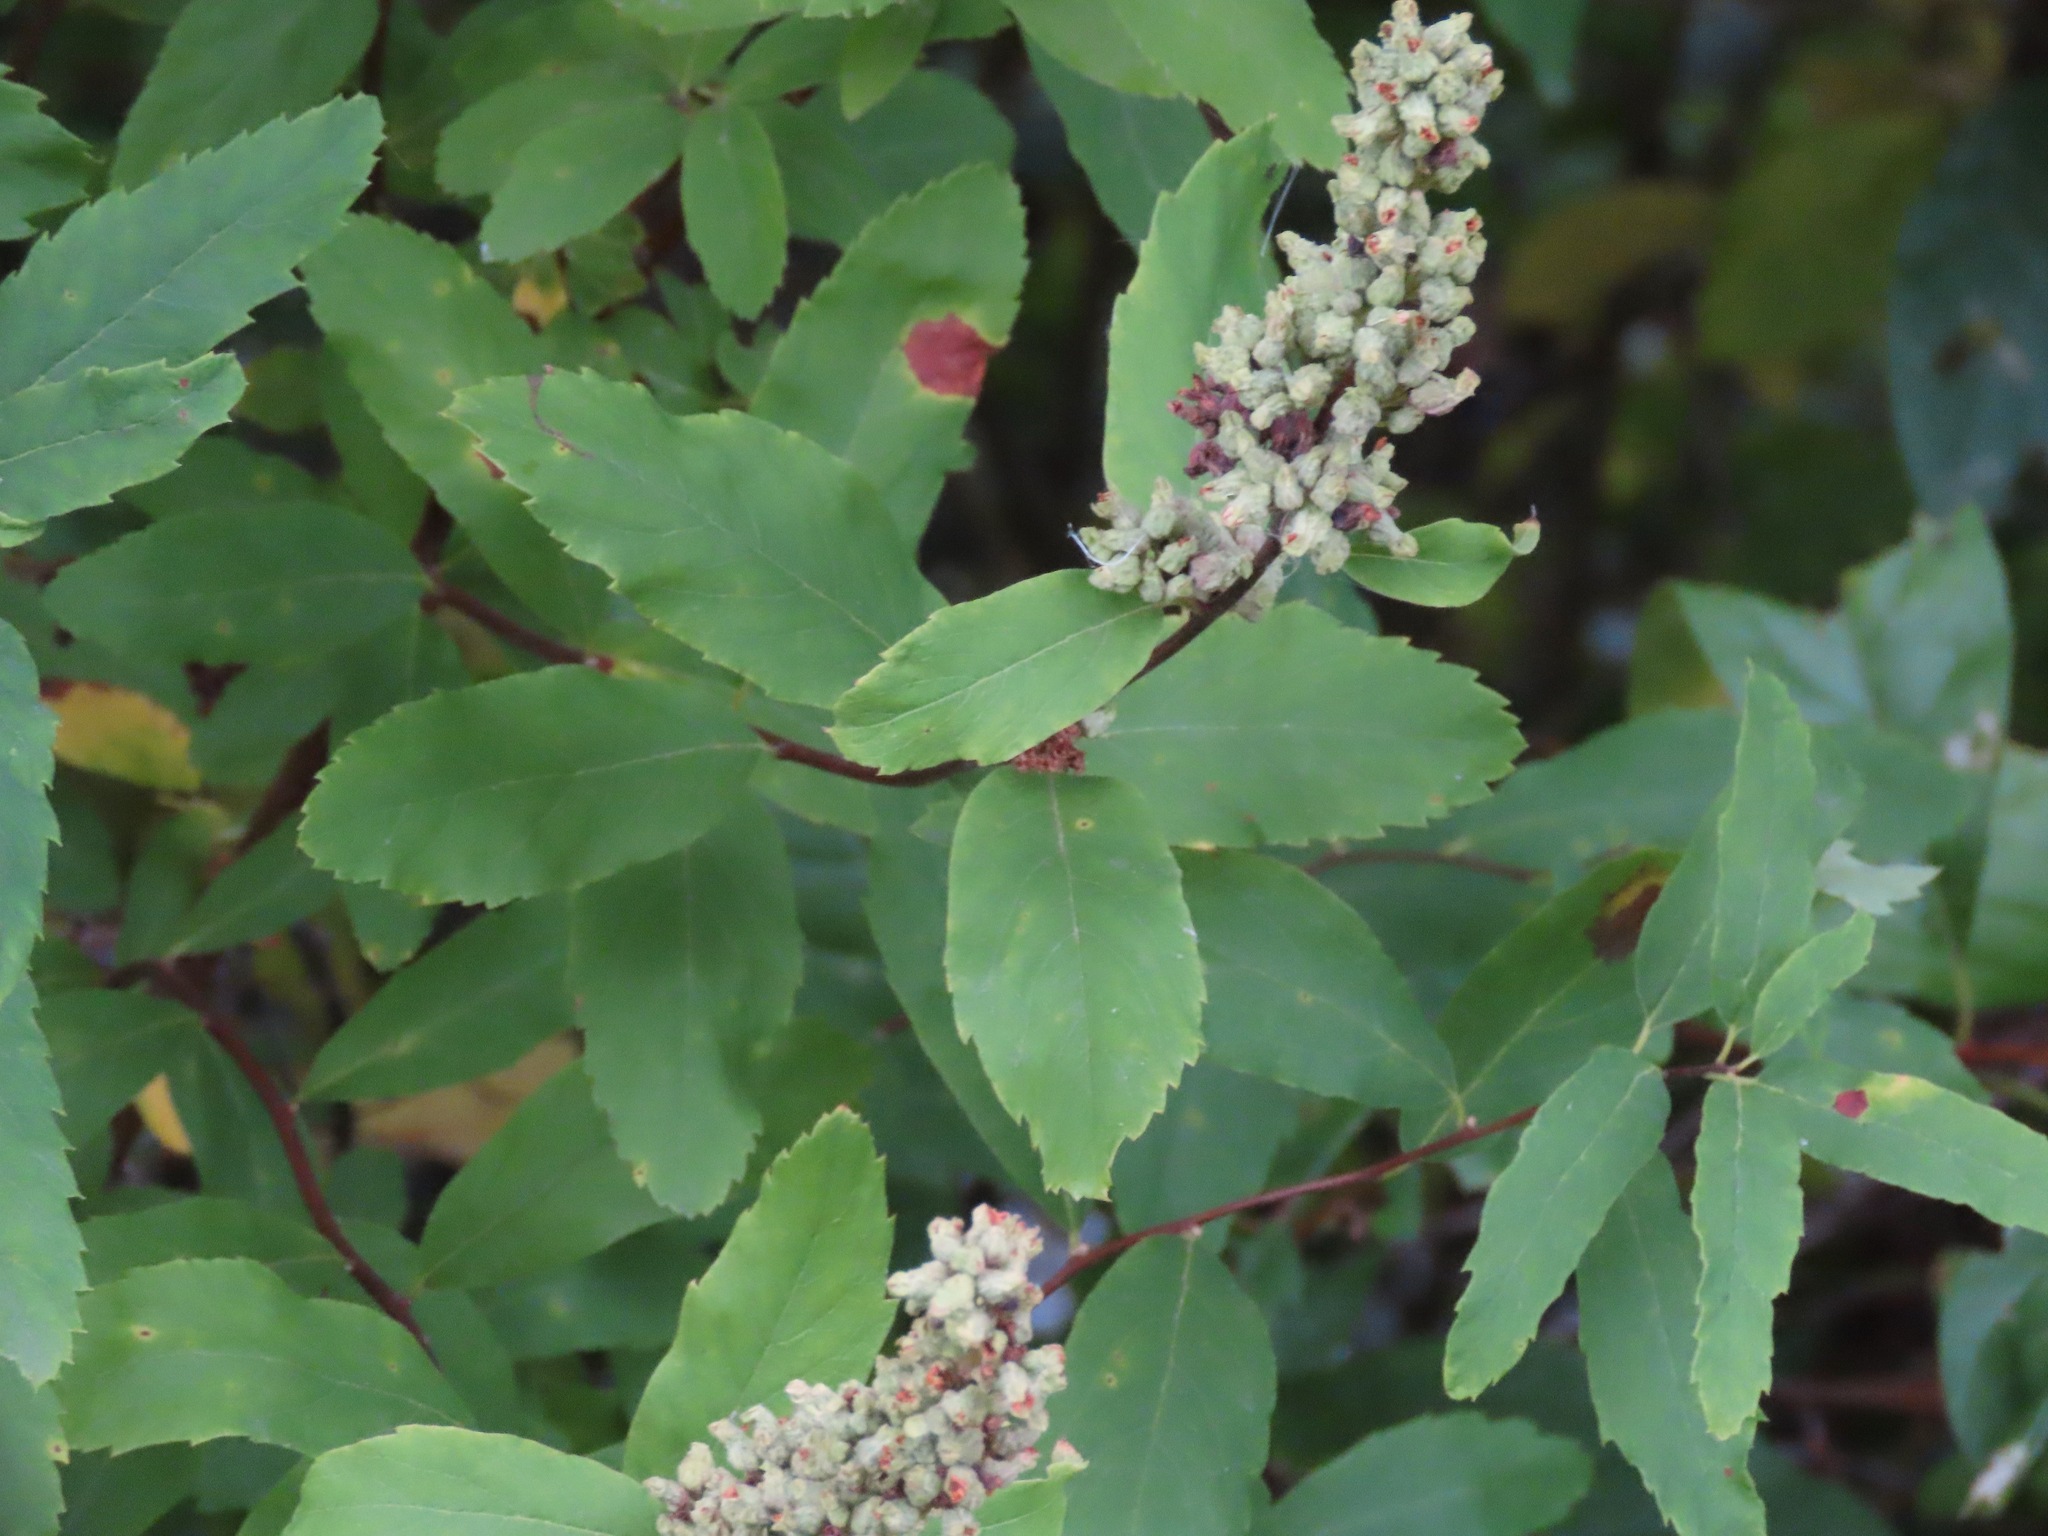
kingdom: Plantae
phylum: Tracheophyta
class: Magnoliopsida
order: Rosales
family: Rosaceae
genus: Spiraea
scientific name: Spiraea douglasii
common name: Steeplebush
